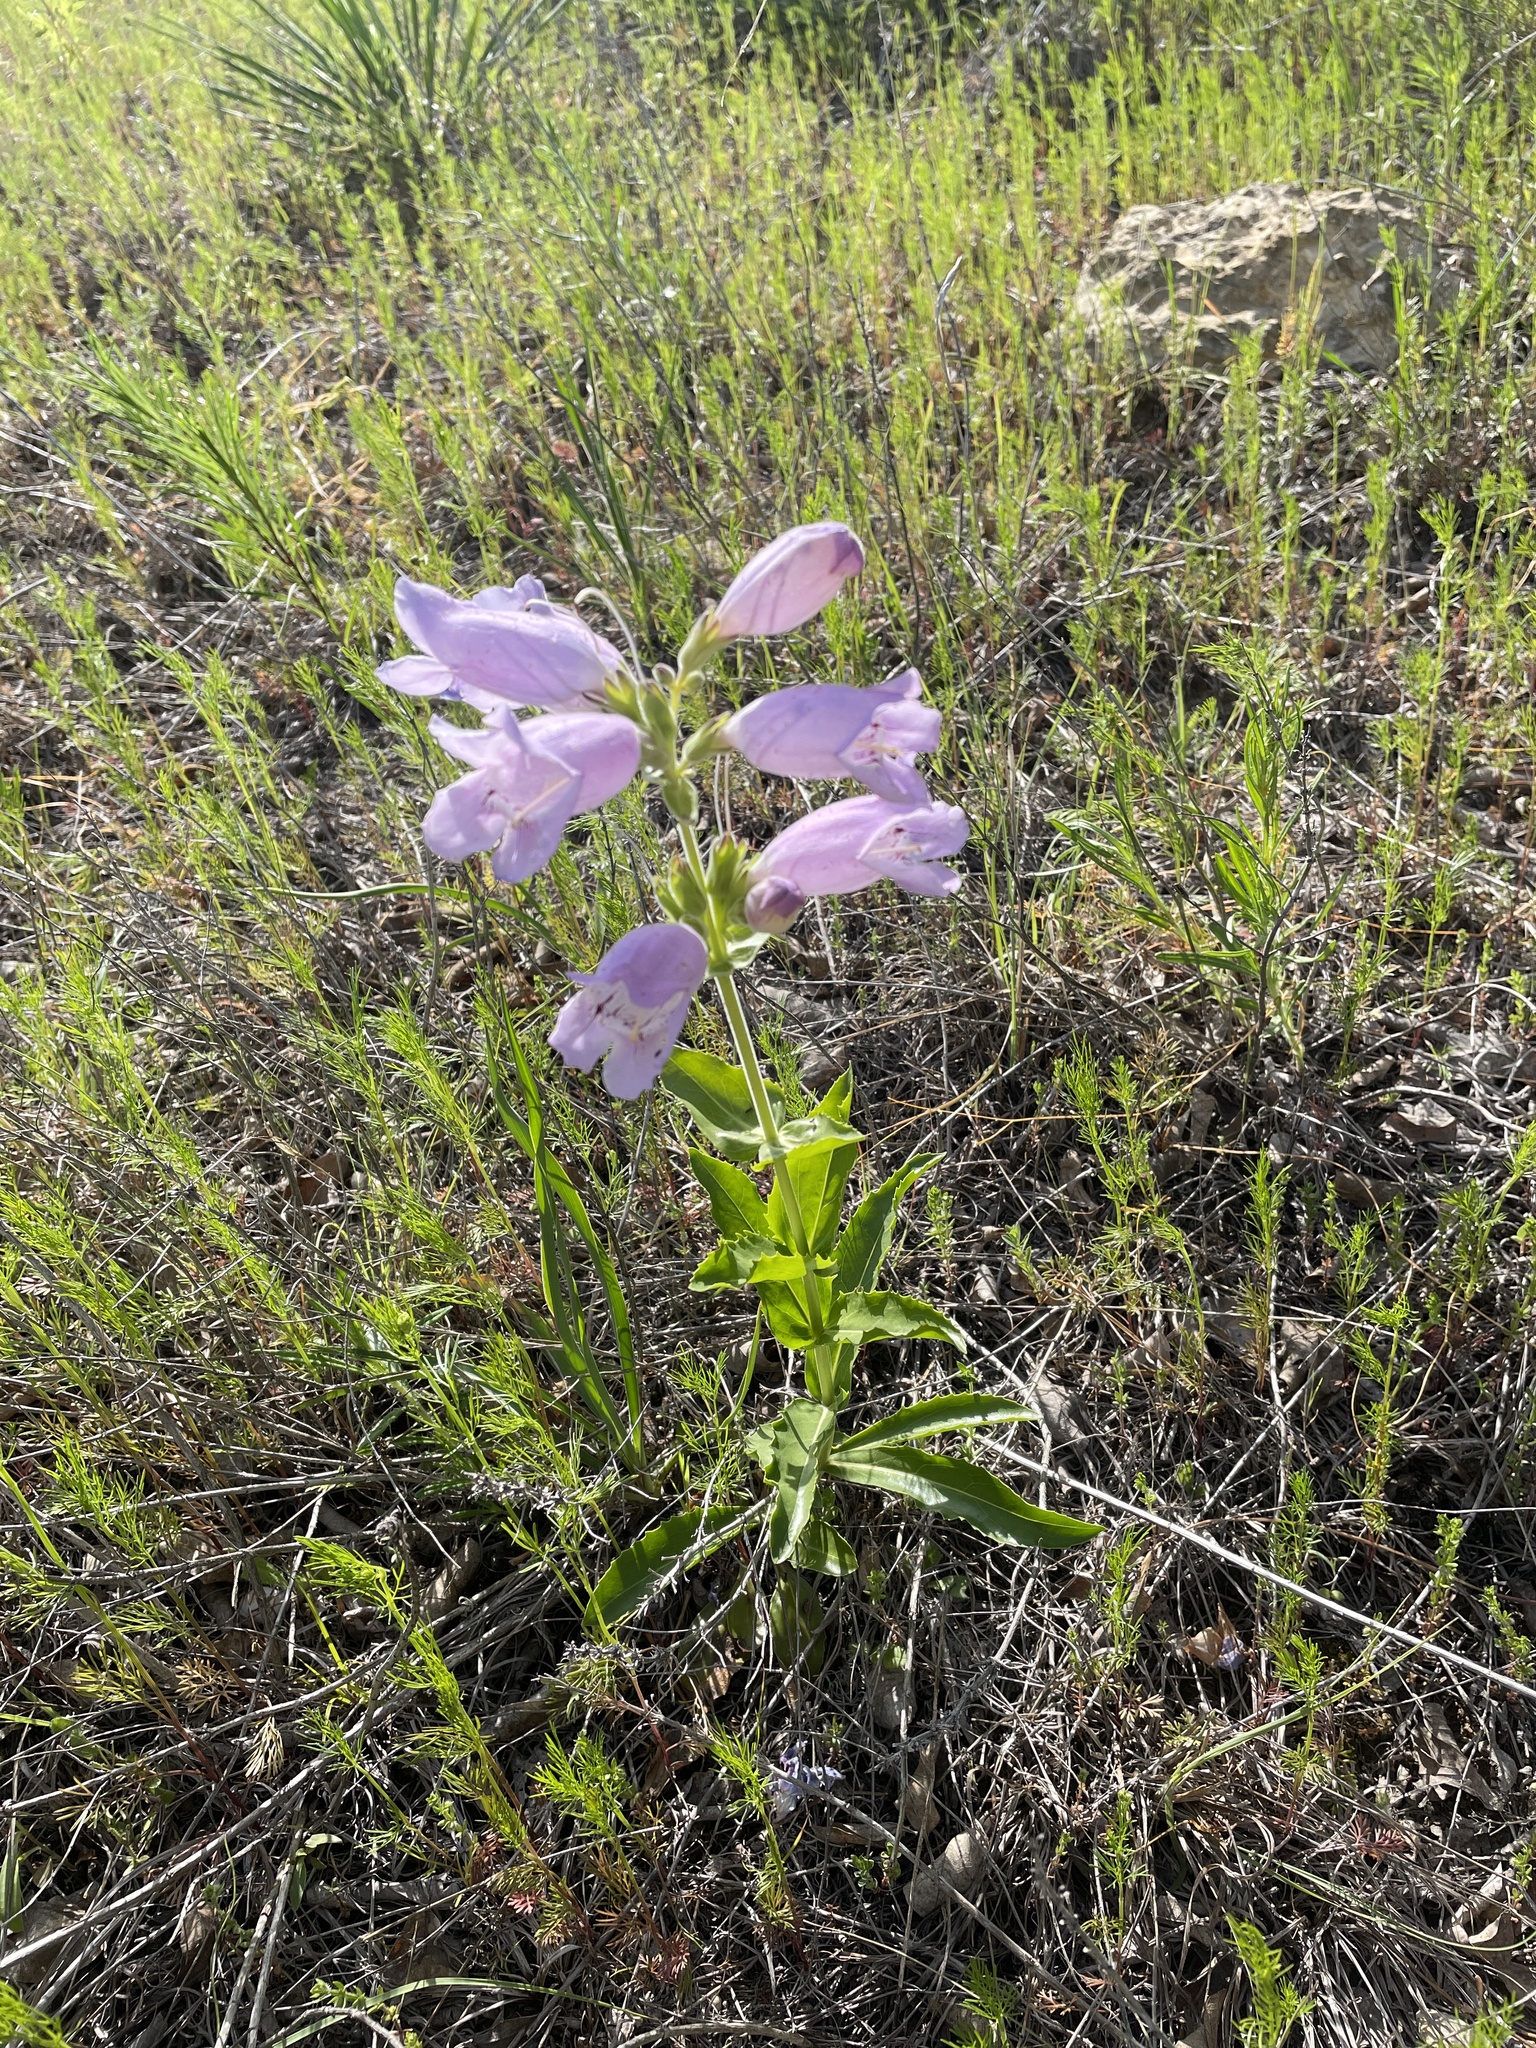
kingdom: Plantae
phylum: Tracheophyta
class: Magnoliopsida
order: Lamiales
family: Plantaginaceae
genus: Penstemon
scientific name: Penstemon cobaea
